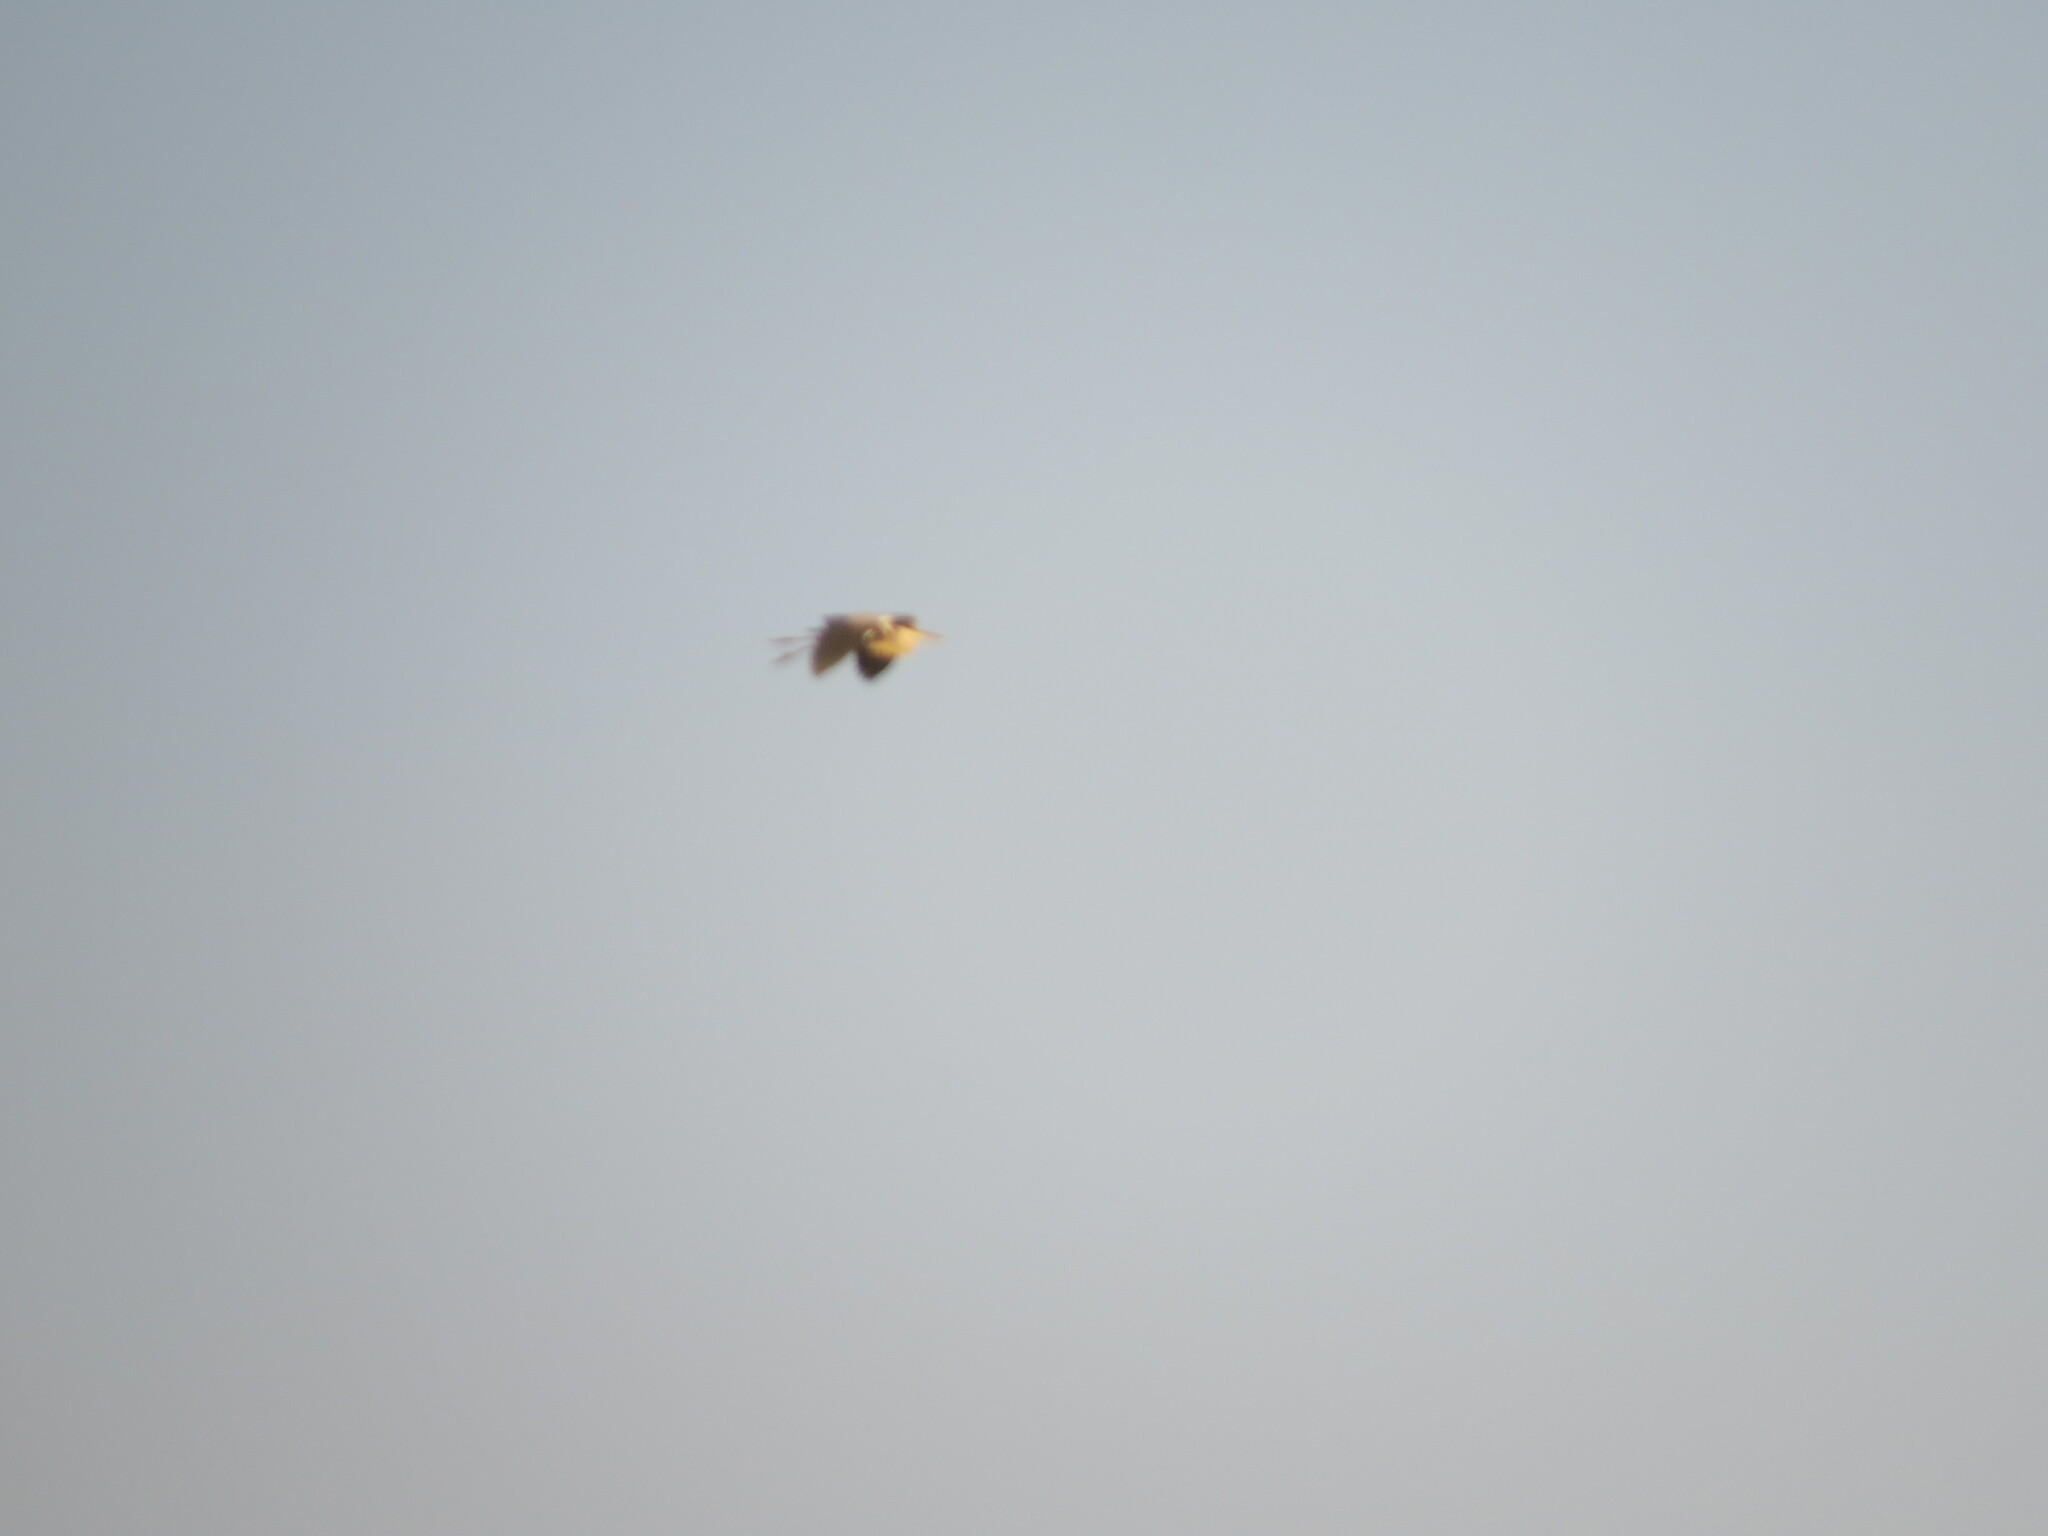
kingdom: Animalia
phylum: Chordata
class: Aves
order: Pelecaniformes
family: Ardeidae
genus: Ardea
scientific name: Ardea cinerea
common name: Grey heron
